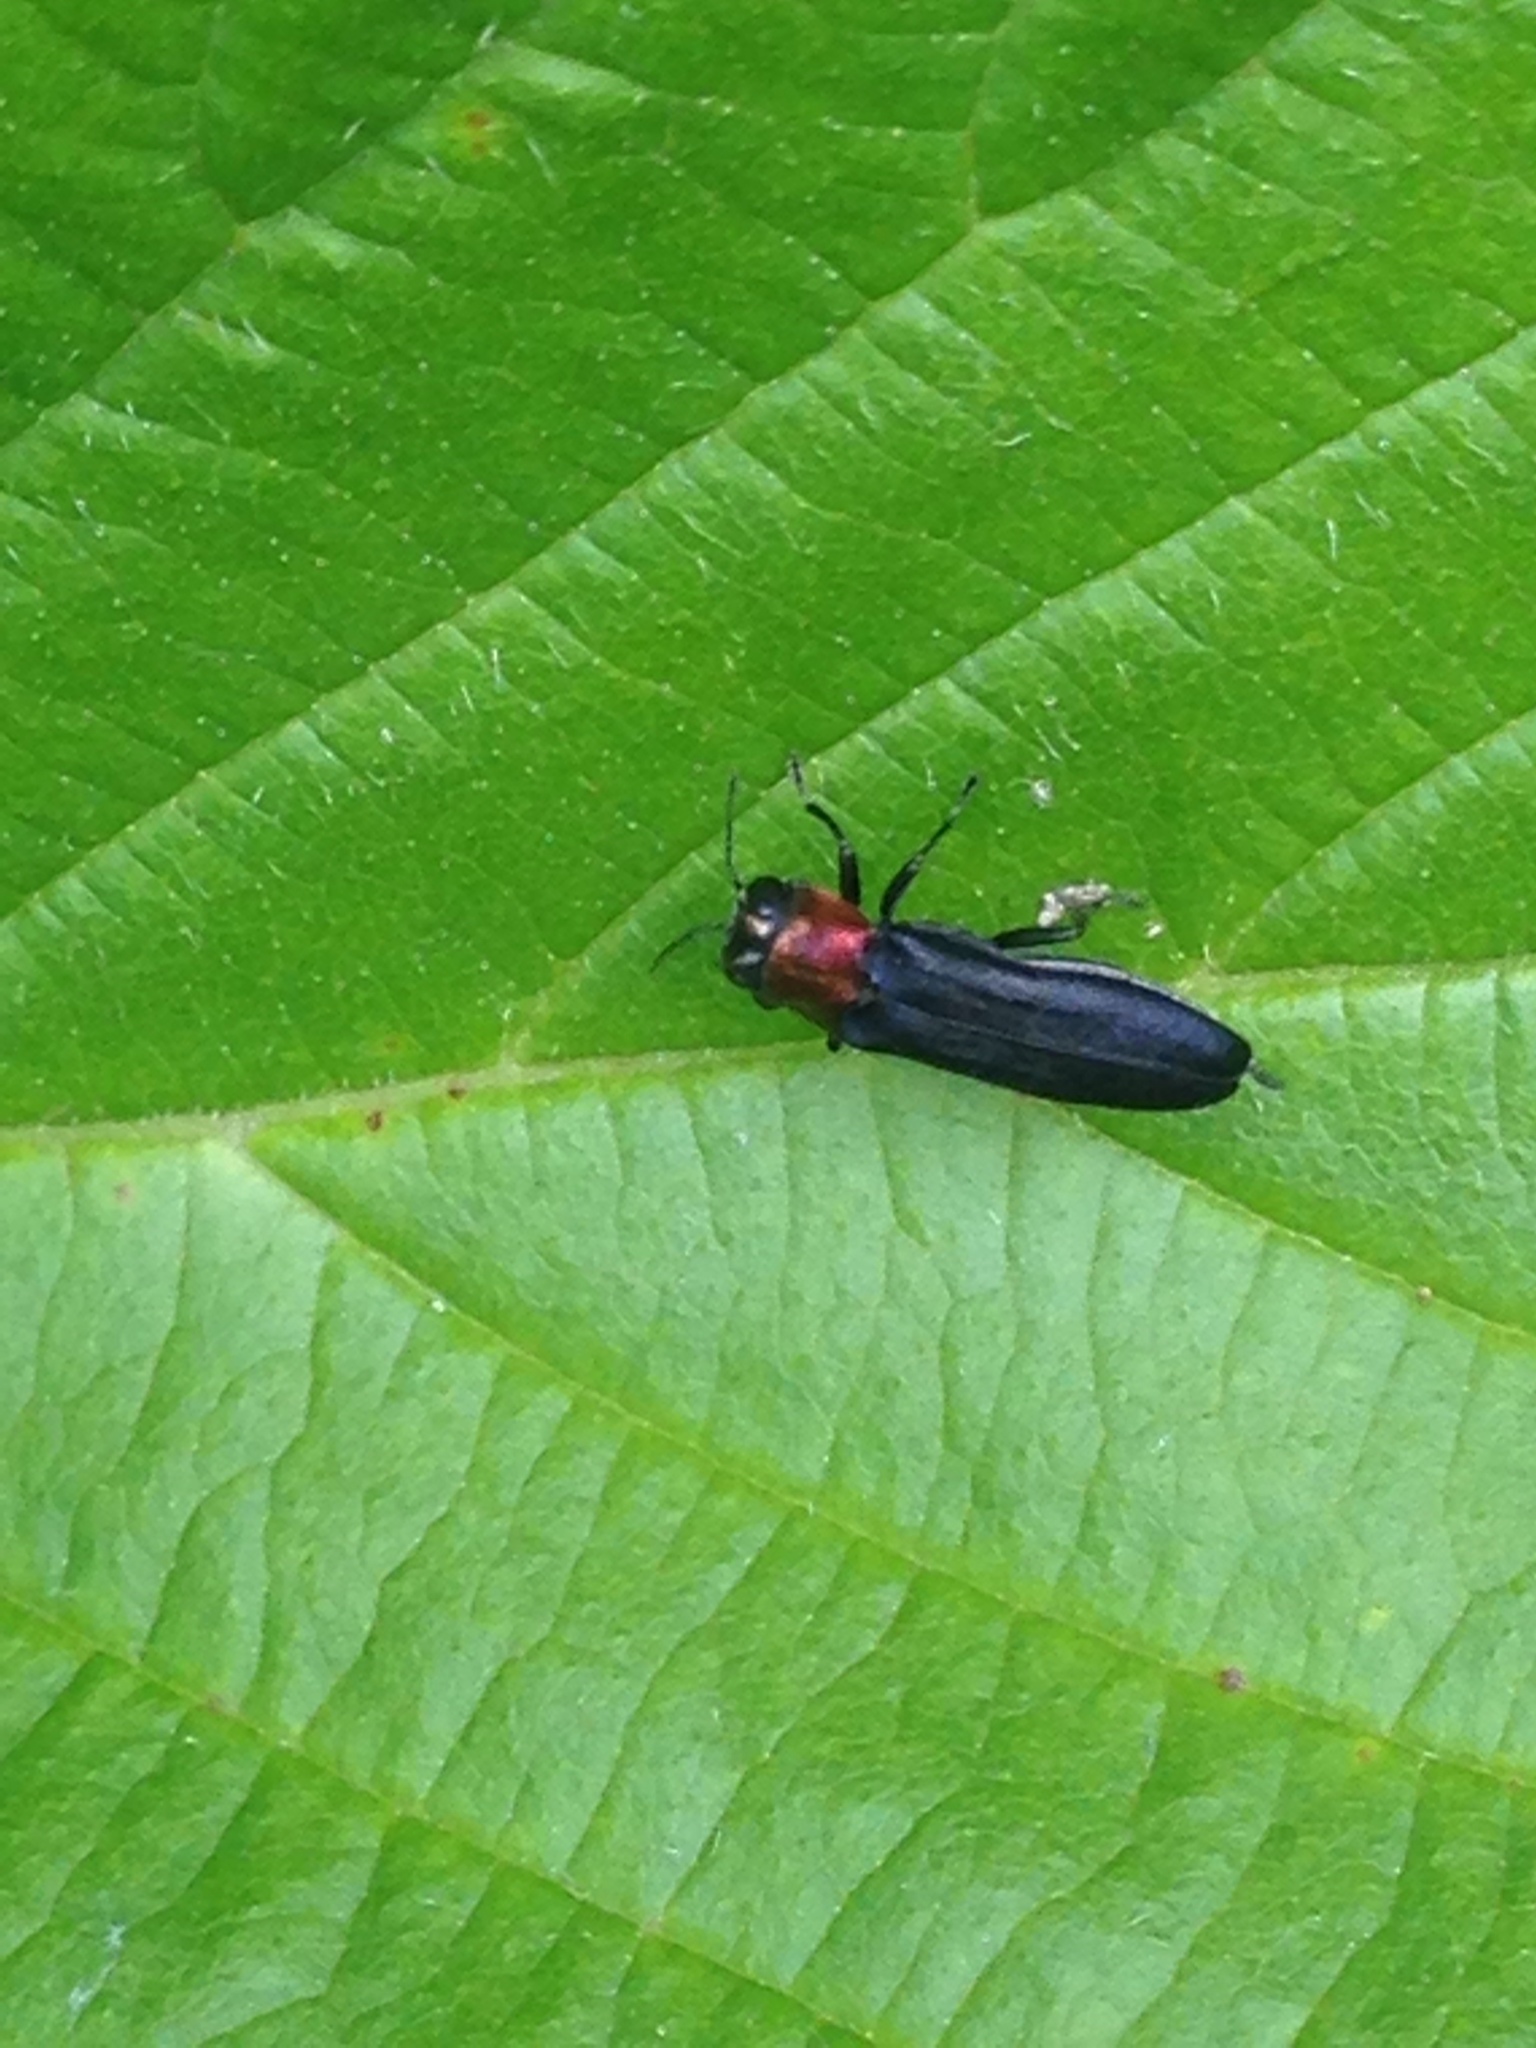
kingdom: Animalia
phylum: Arthropoda
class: Insecta
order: Coleoptera
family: Buprestidae
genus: Agrilus
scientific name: Agrilus ruficollis
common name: Red-necked cane borer beetle
